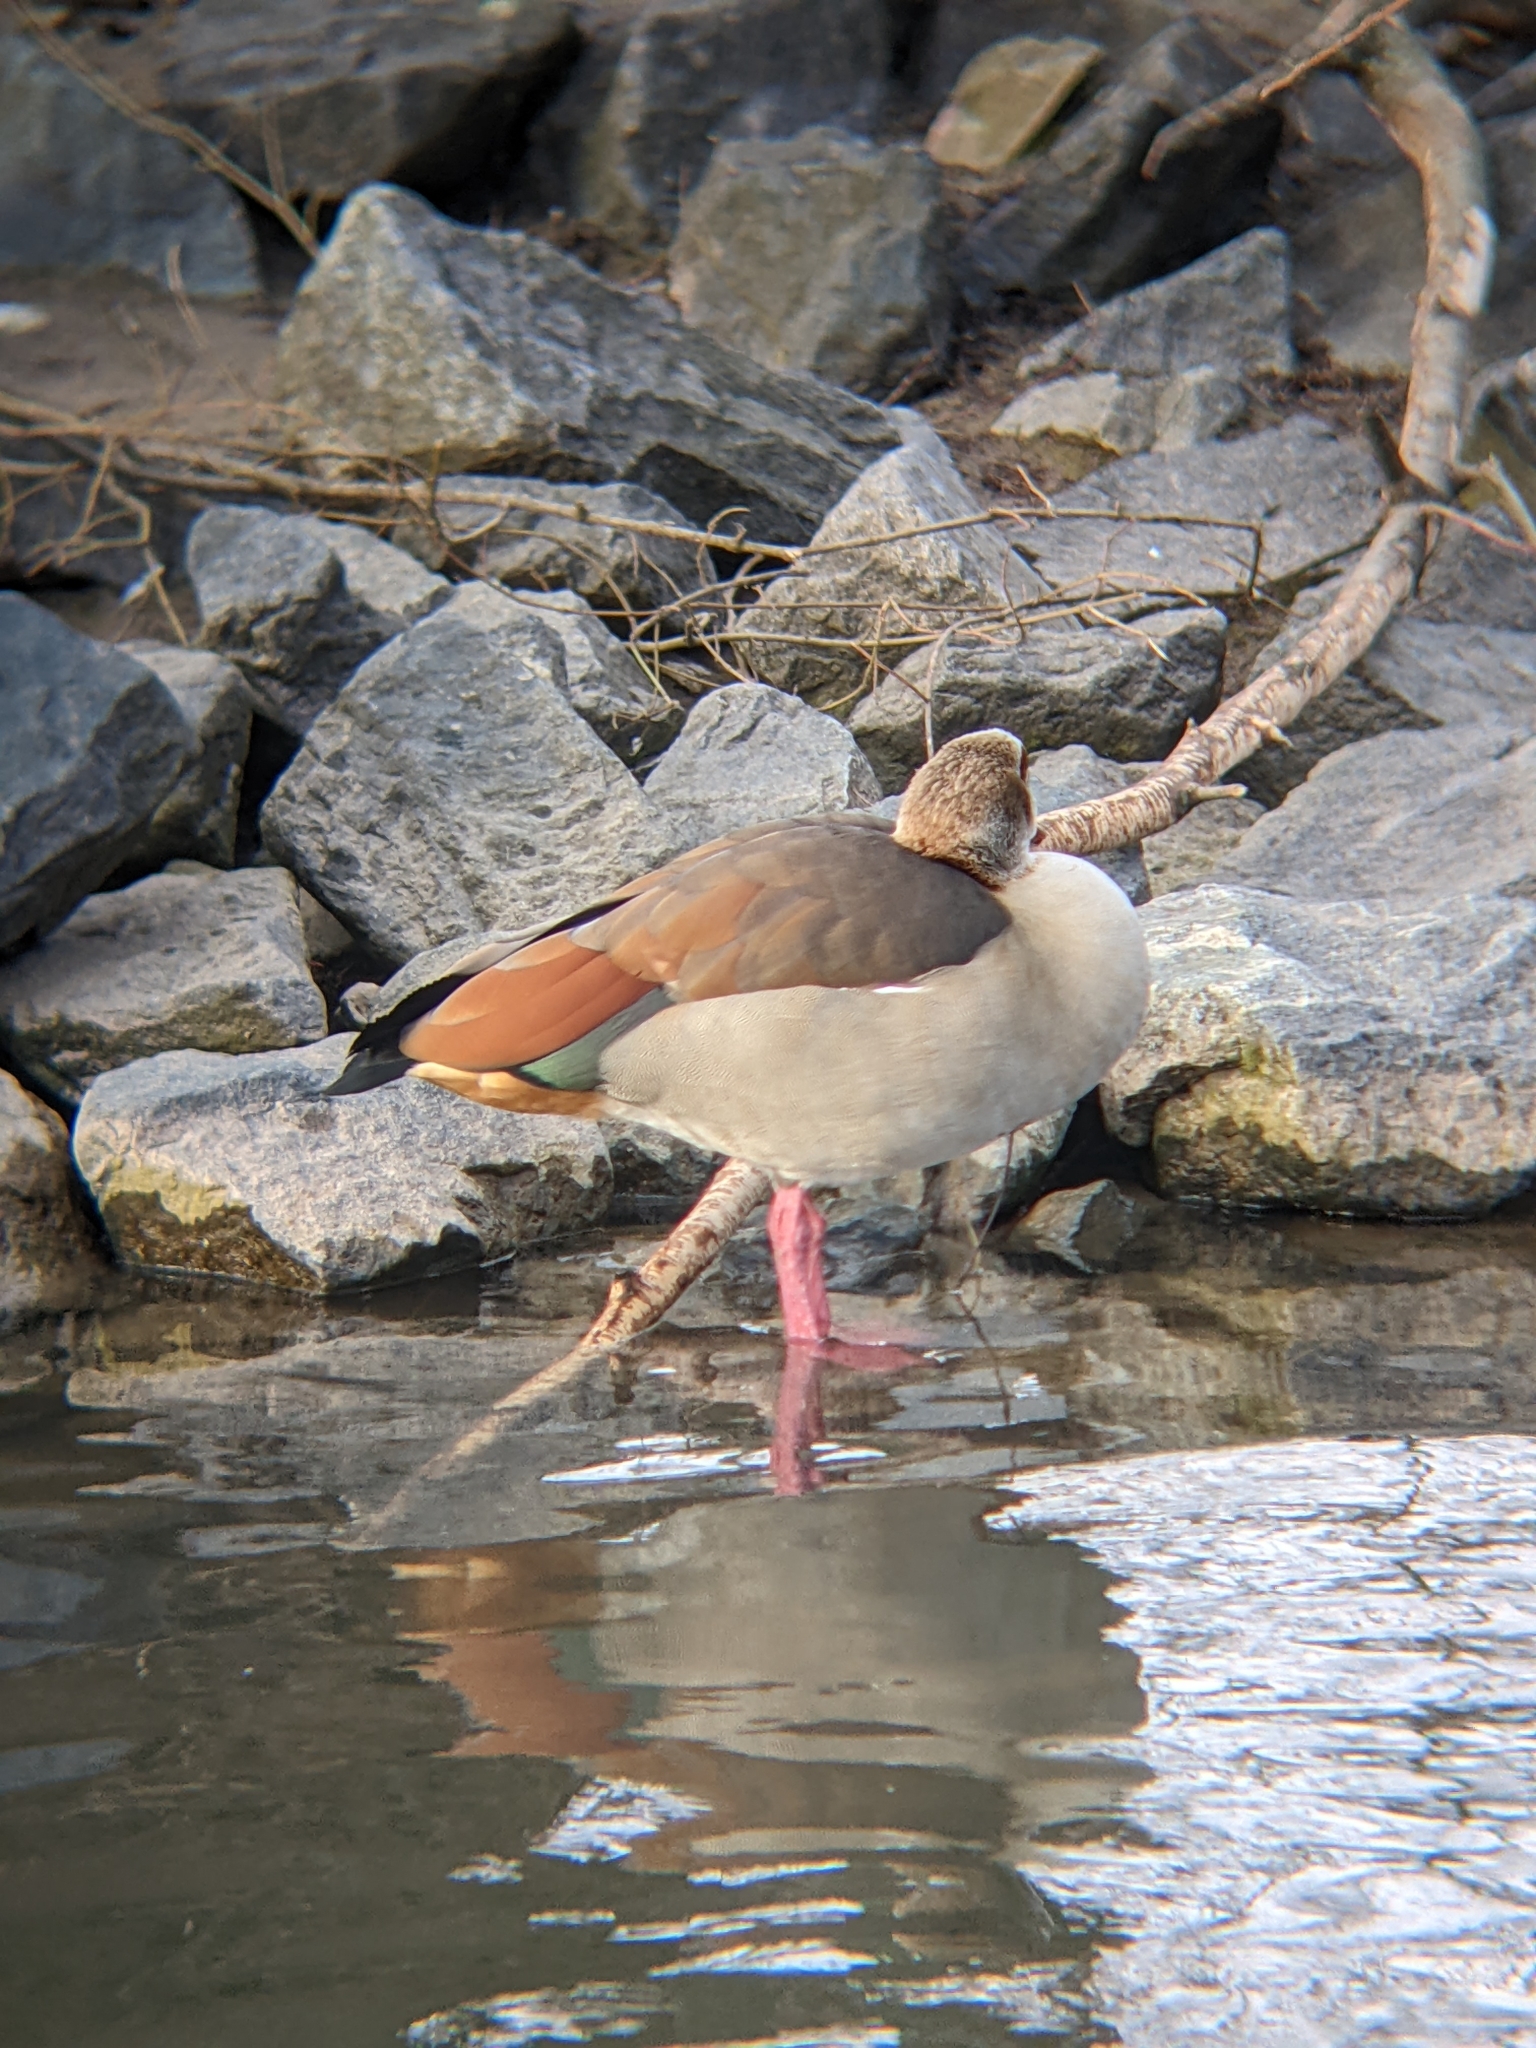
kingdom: Animalia
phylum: Chordata
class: Aves
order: Anseriformes
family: Anatidae
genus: Alopochen
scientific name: Alopochen aegyptiaca
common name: Egyptian goose
